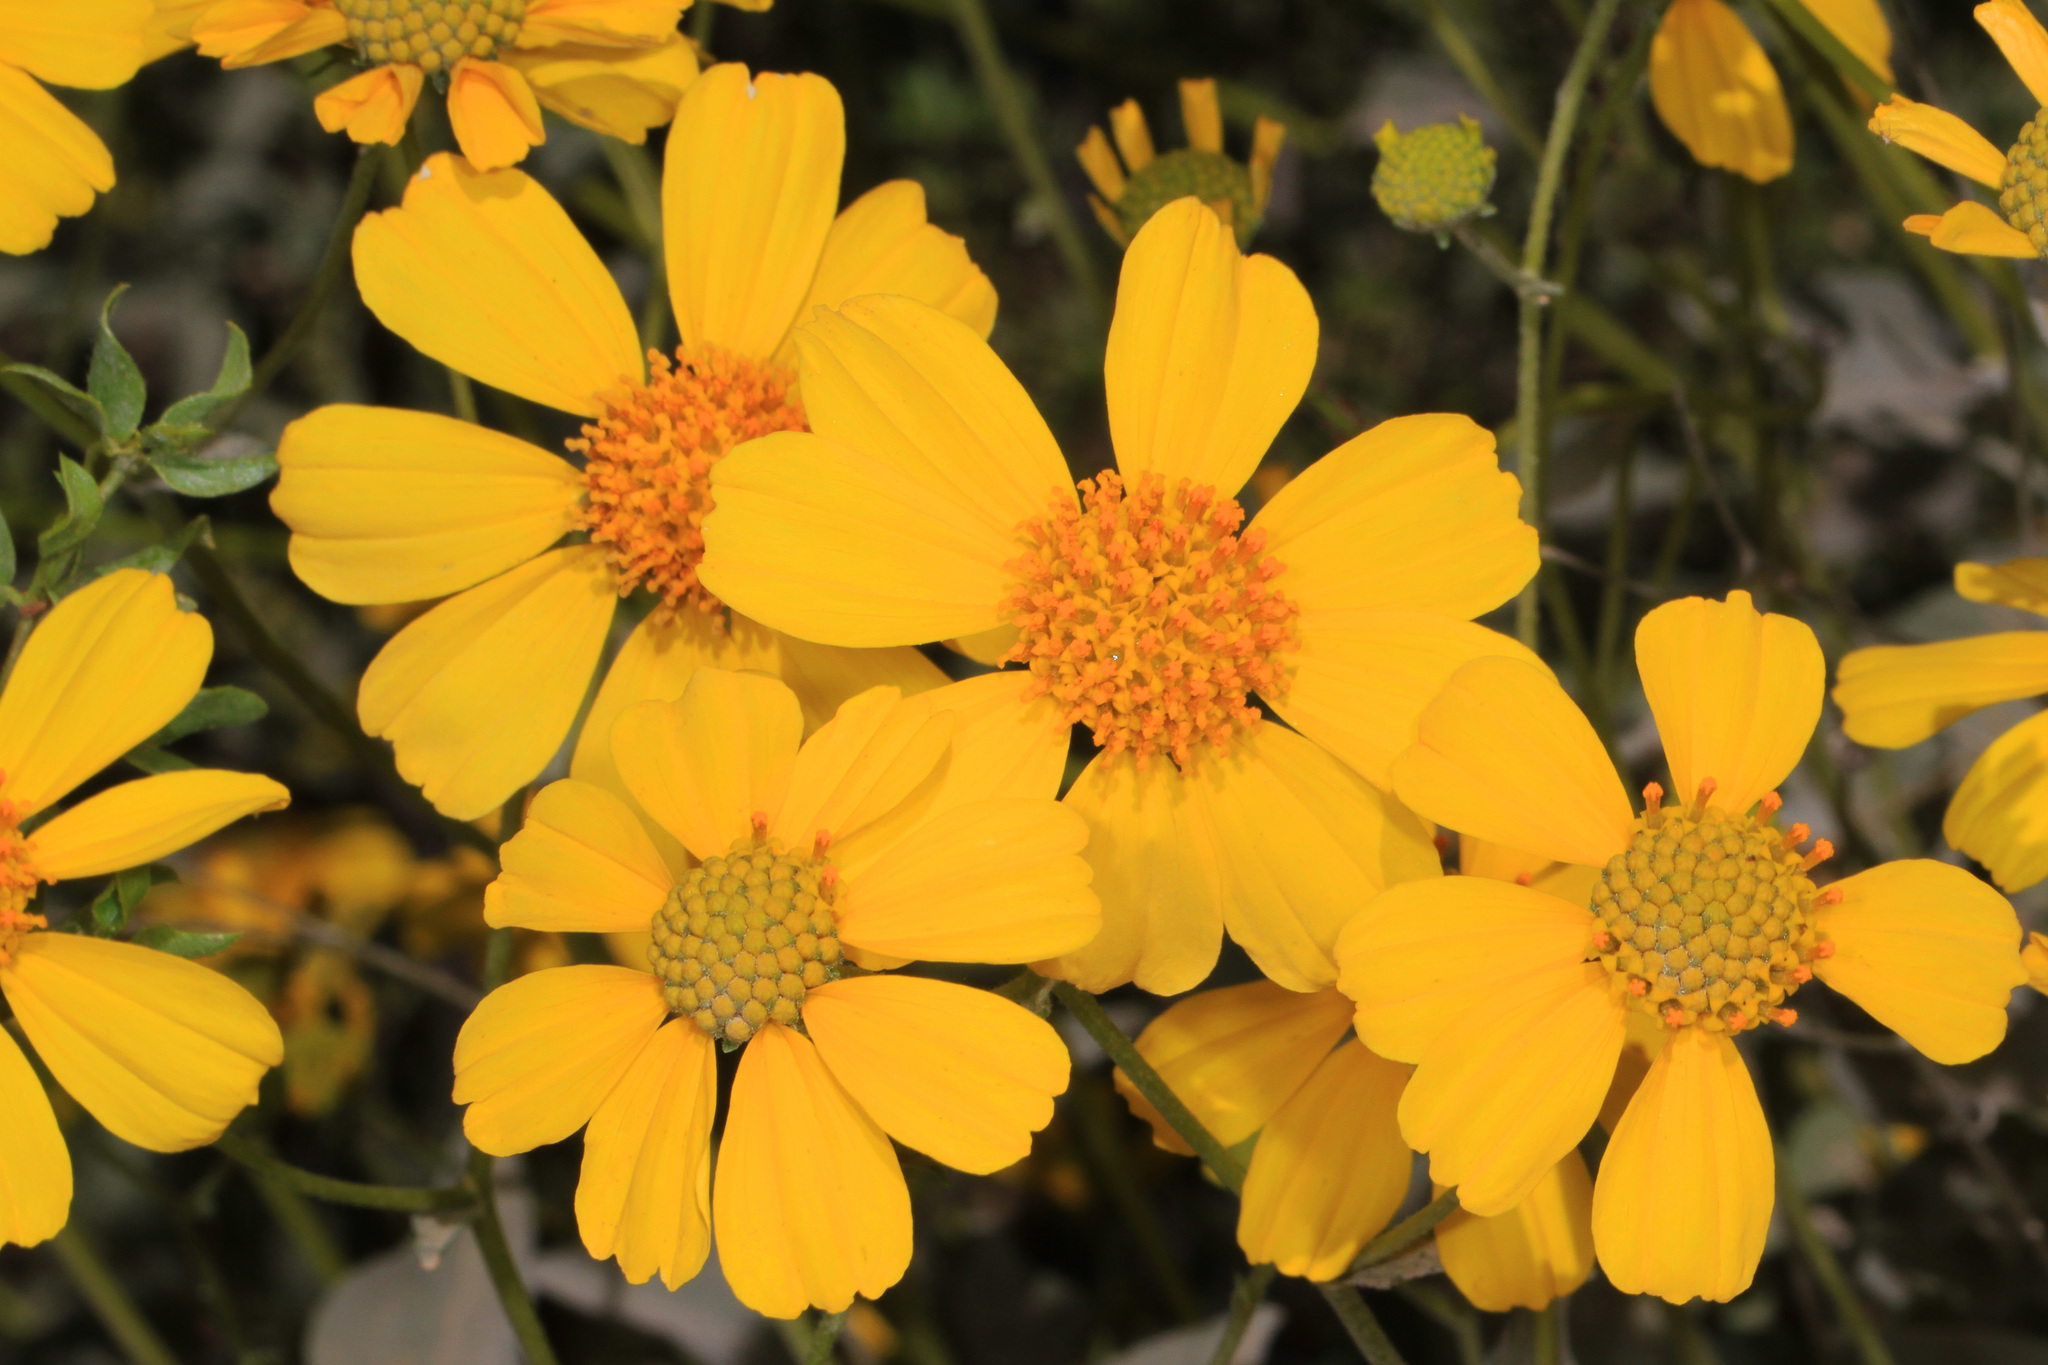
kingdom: Plantae
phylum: Tracheophyta
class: Magnoliopsida
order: Asterales
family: Asteraceae
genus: Encelia
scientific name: Encelia farinosa
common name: Brittlebush
